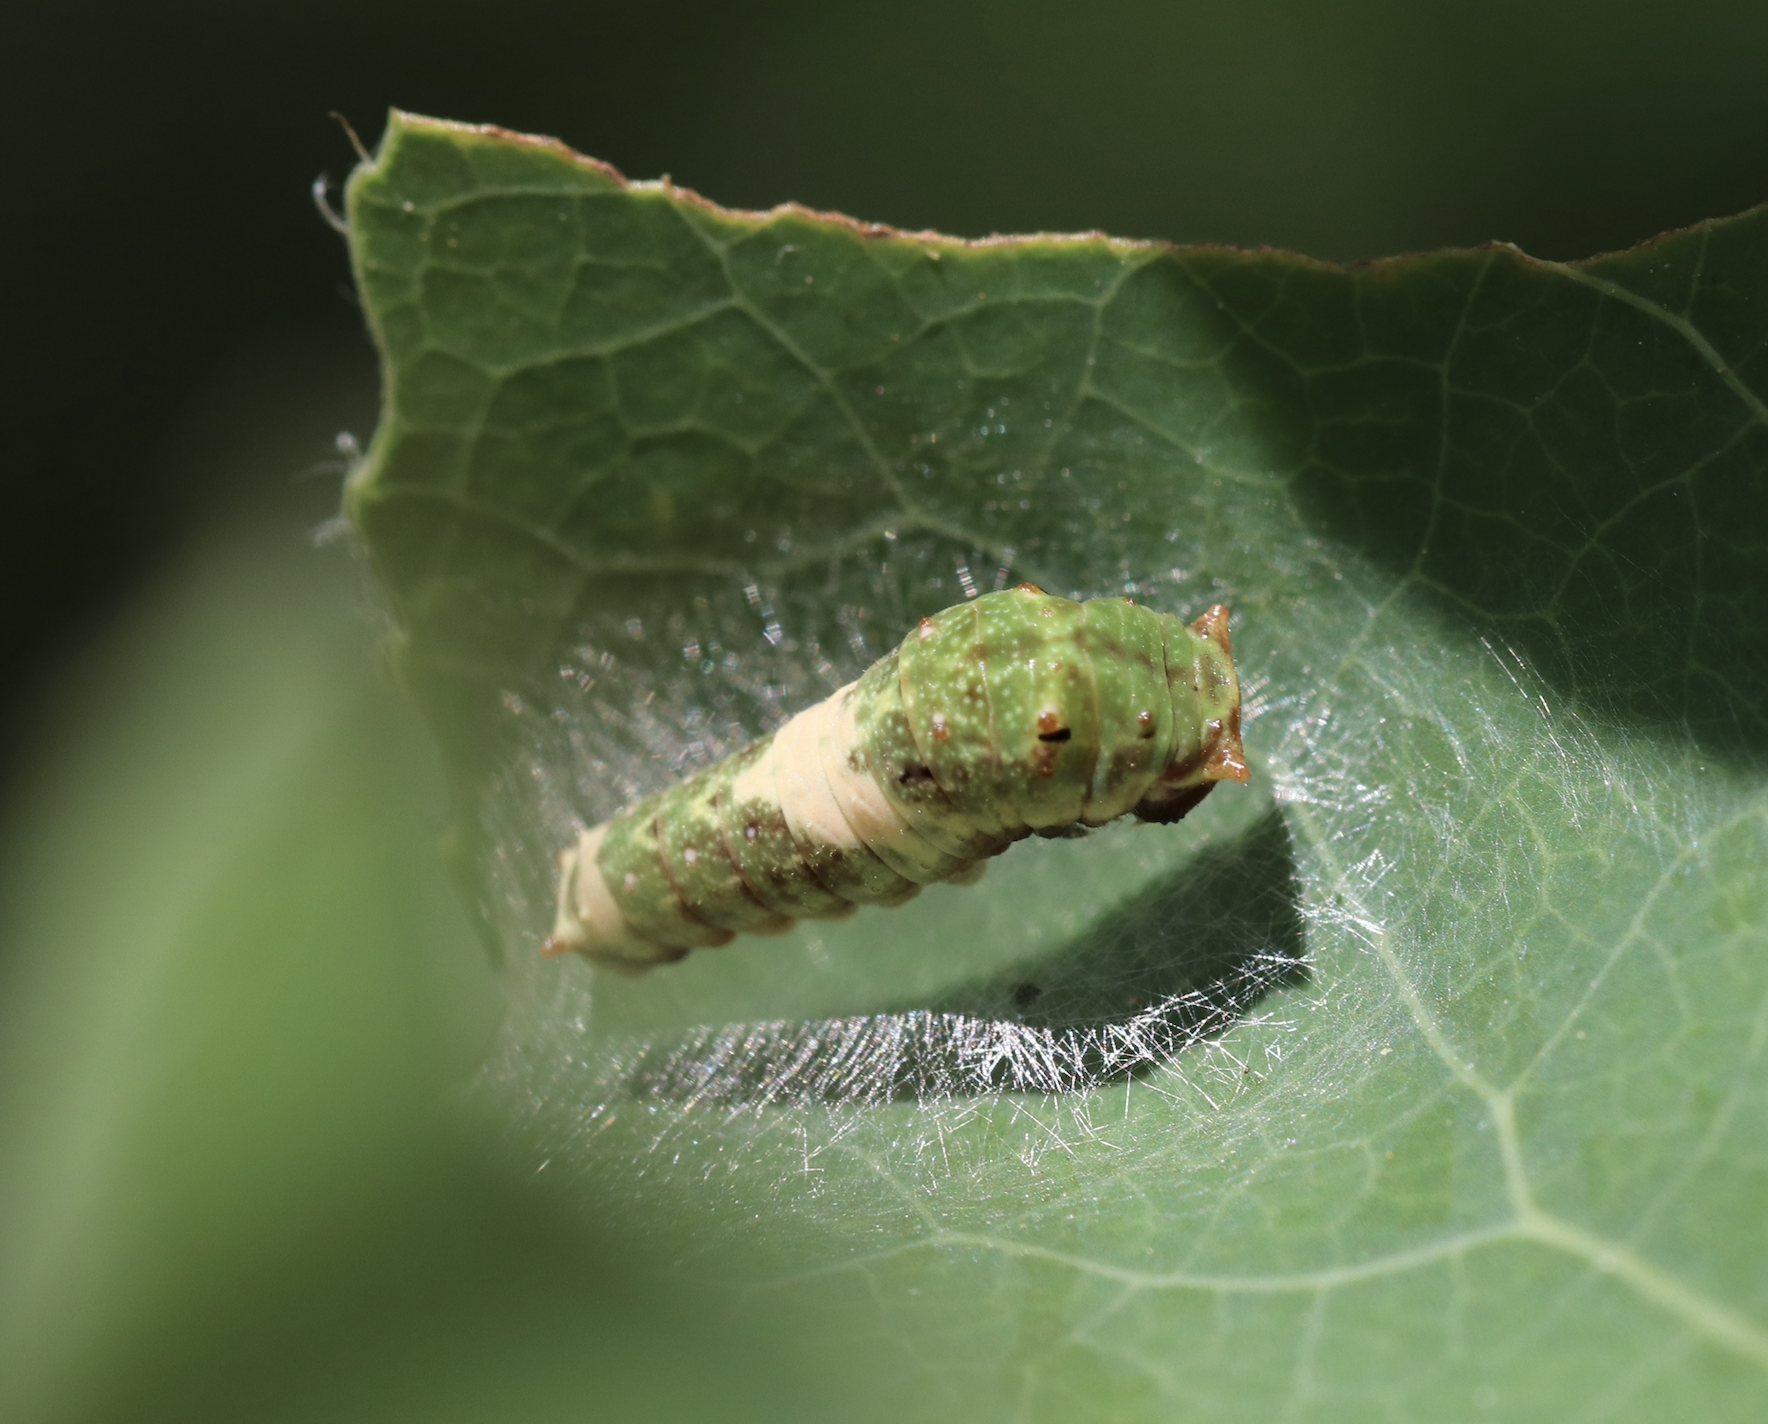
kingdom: Animalia
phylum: Arthropoda
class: Insecta
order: Lepidoptera
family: Papilionidae
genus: Papilio
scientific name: Papilio canadensis
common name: Canadian tiger swallowtail
